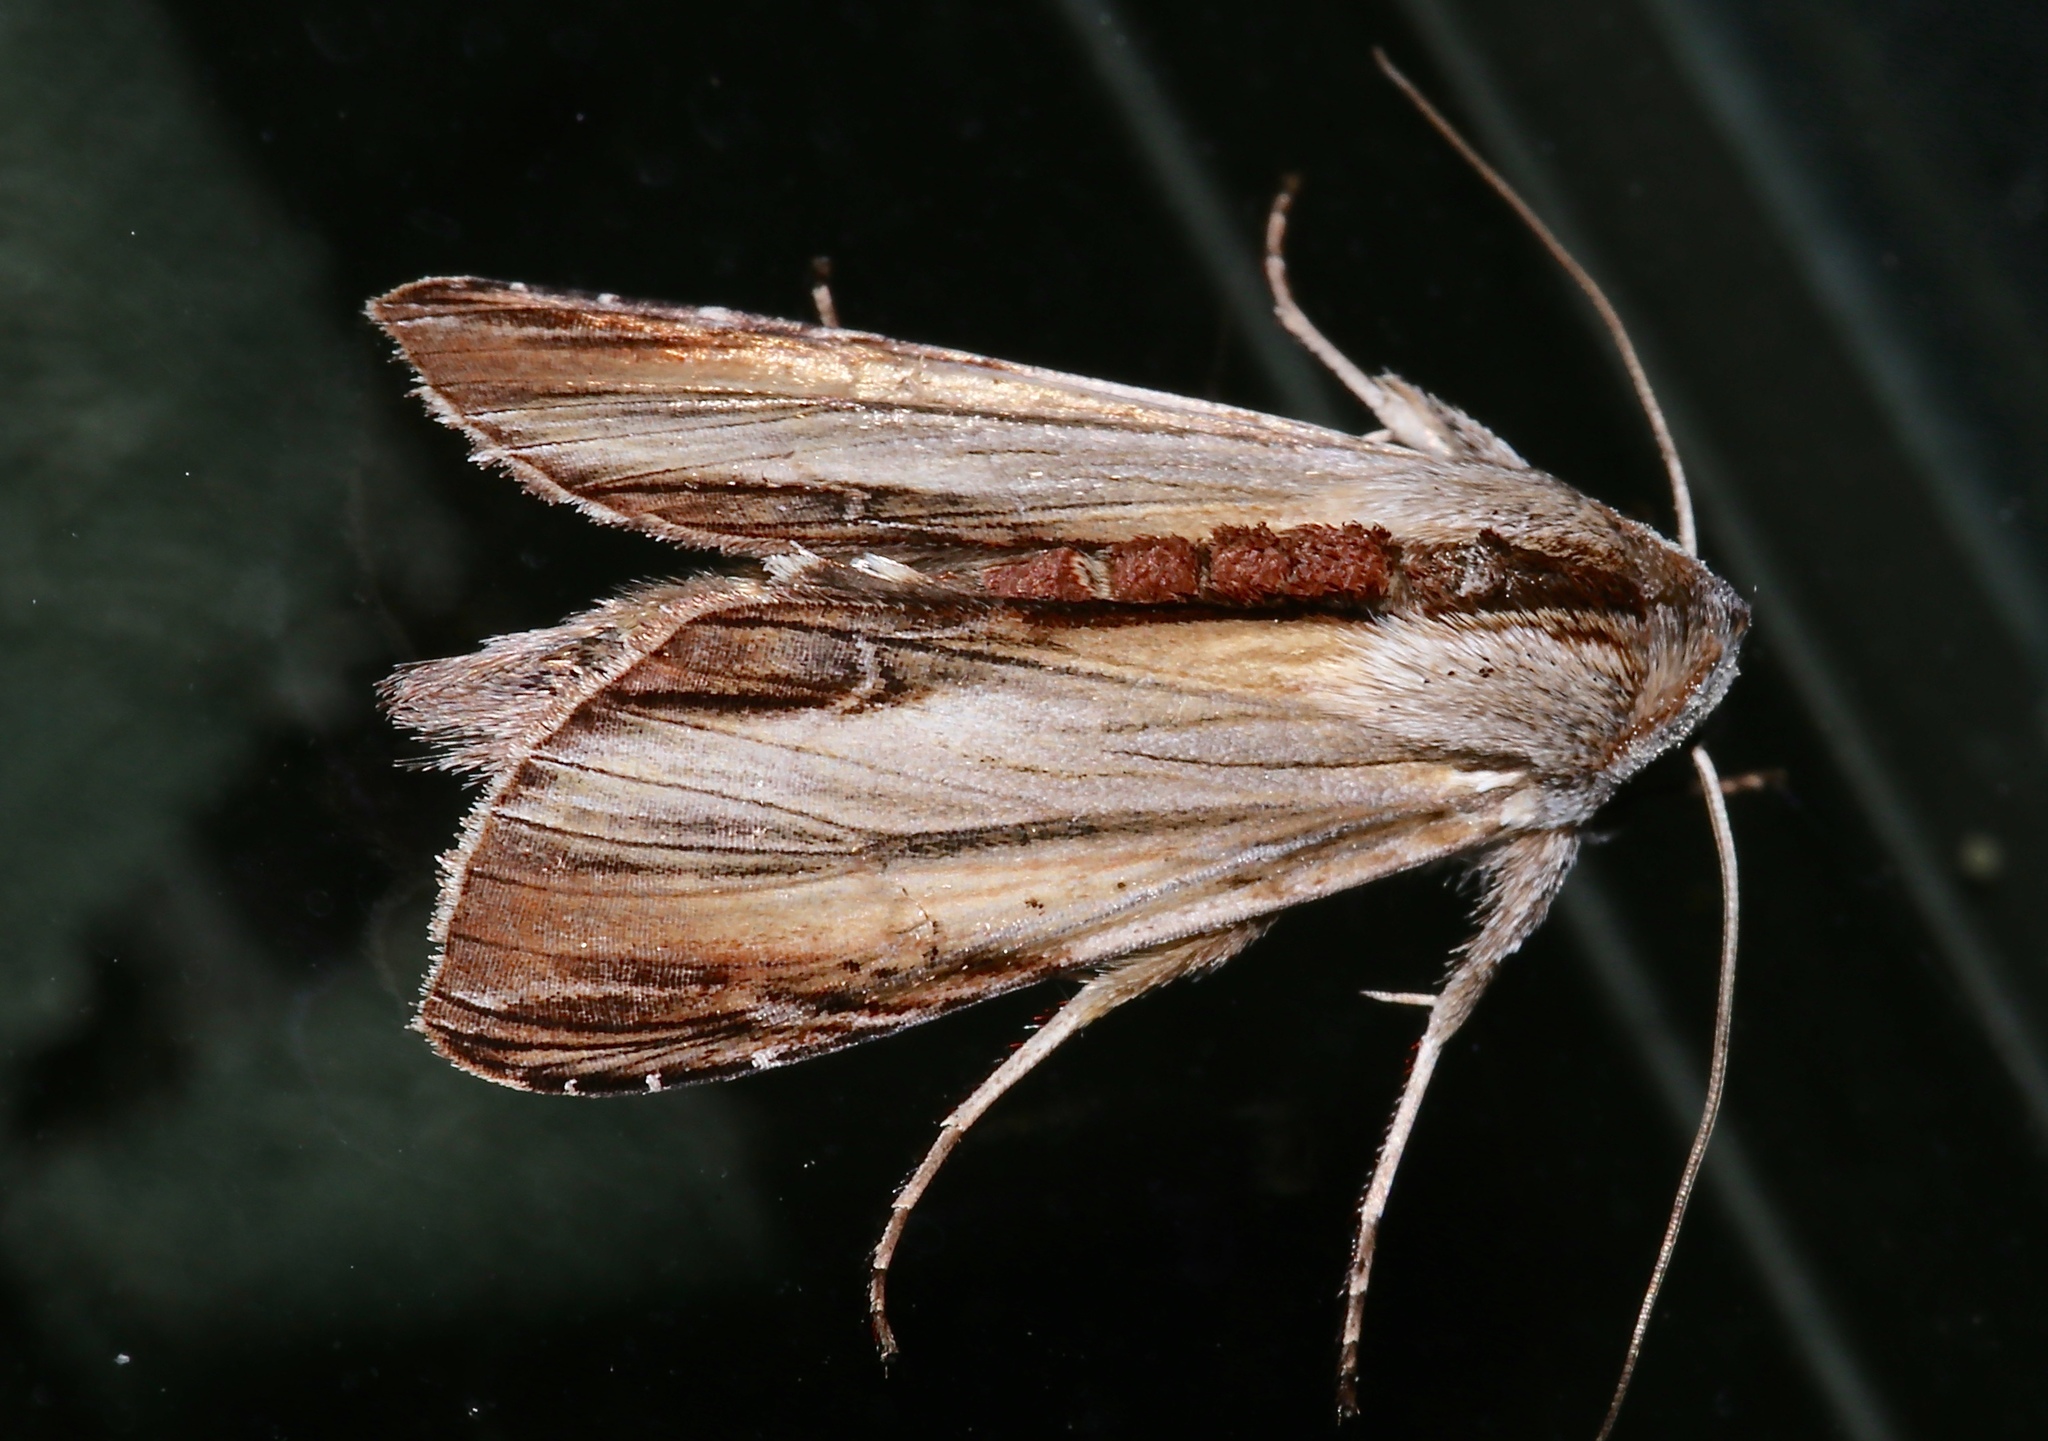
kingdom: Animalia
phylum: Arthropoda
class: Insecta
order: Lepidoptera
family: Noctuidae
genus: Cucullia
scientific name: Cucullia convexipennis
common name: Brown-hooded owlet
